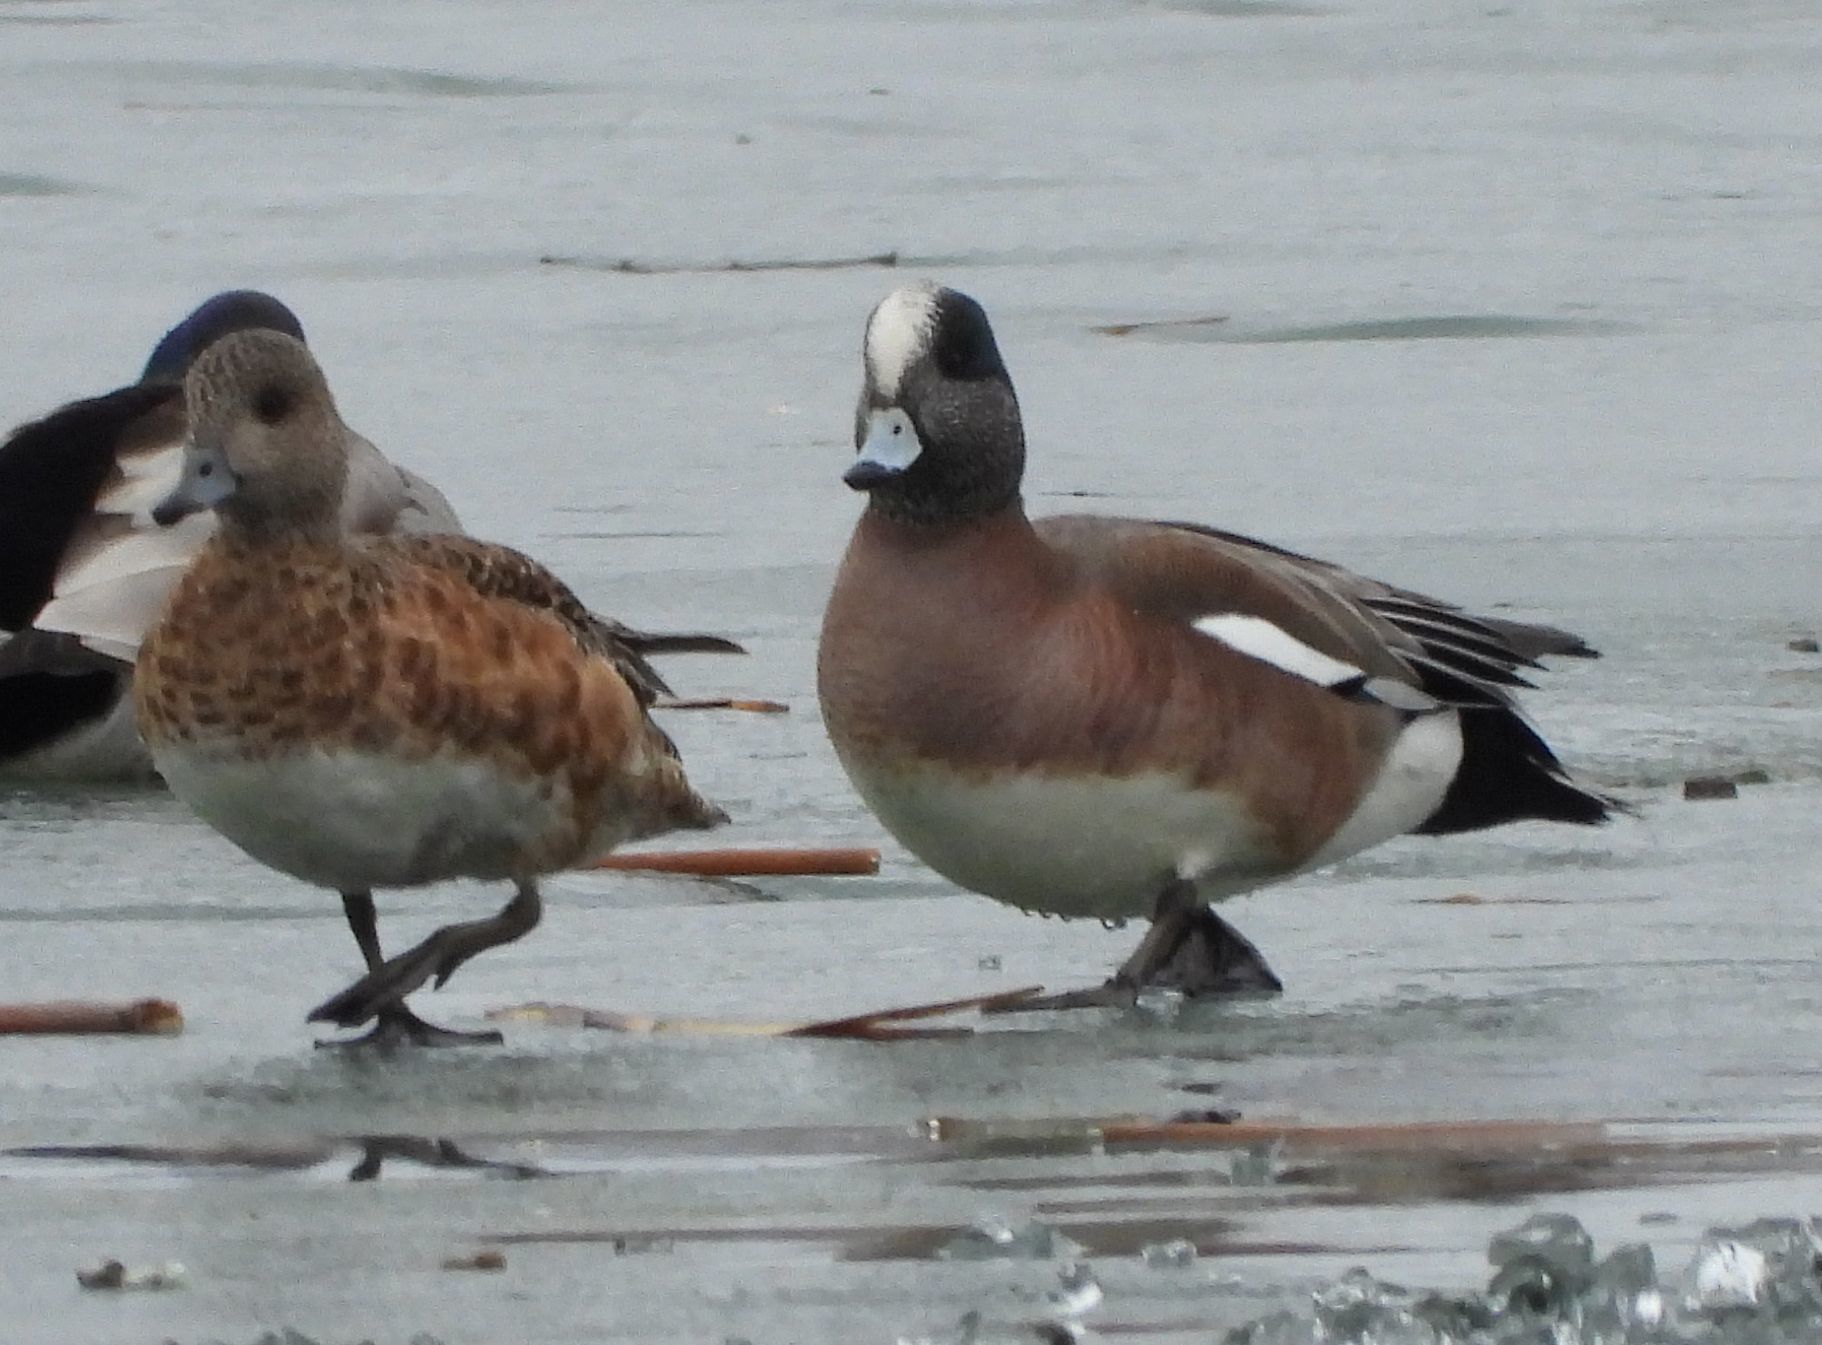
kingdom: Animalia
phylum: Chordata
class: Aves
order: Anseriformes
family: Anatidae
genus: Mareca
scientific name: Mareca americana
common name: American wigeon
